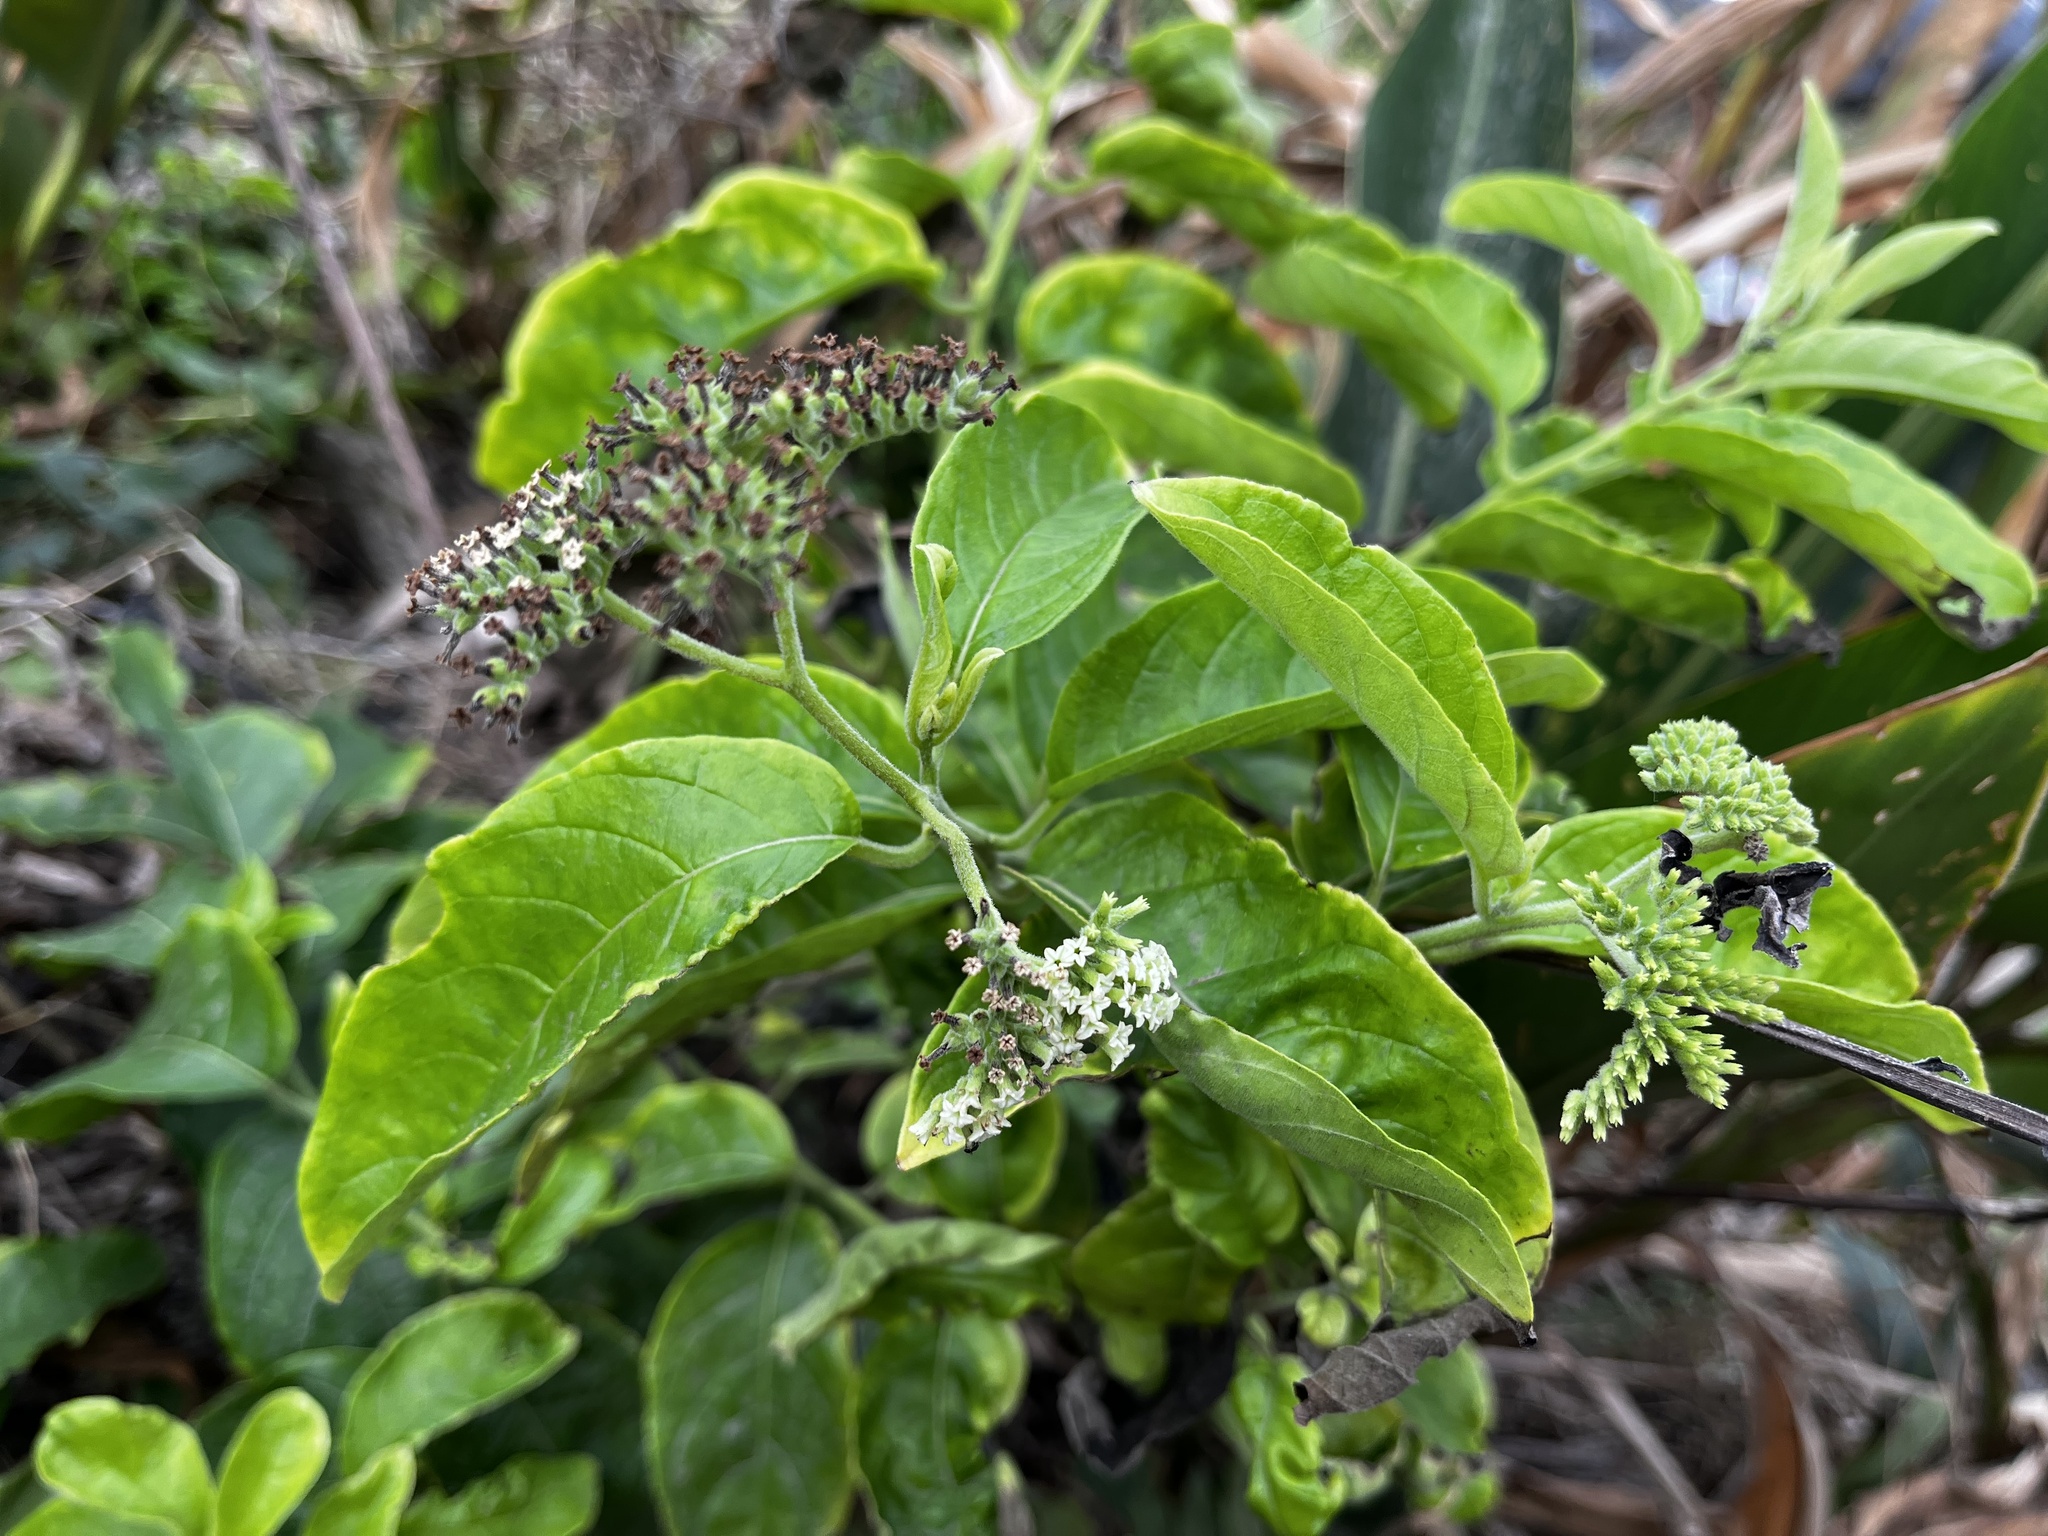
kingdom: Plantae
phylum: Tracheophyta
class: Magnoliopsida
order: Boraginales
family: Heliotropiaceae
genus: Heliotropium
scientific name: Heliotropium sarmentosum
